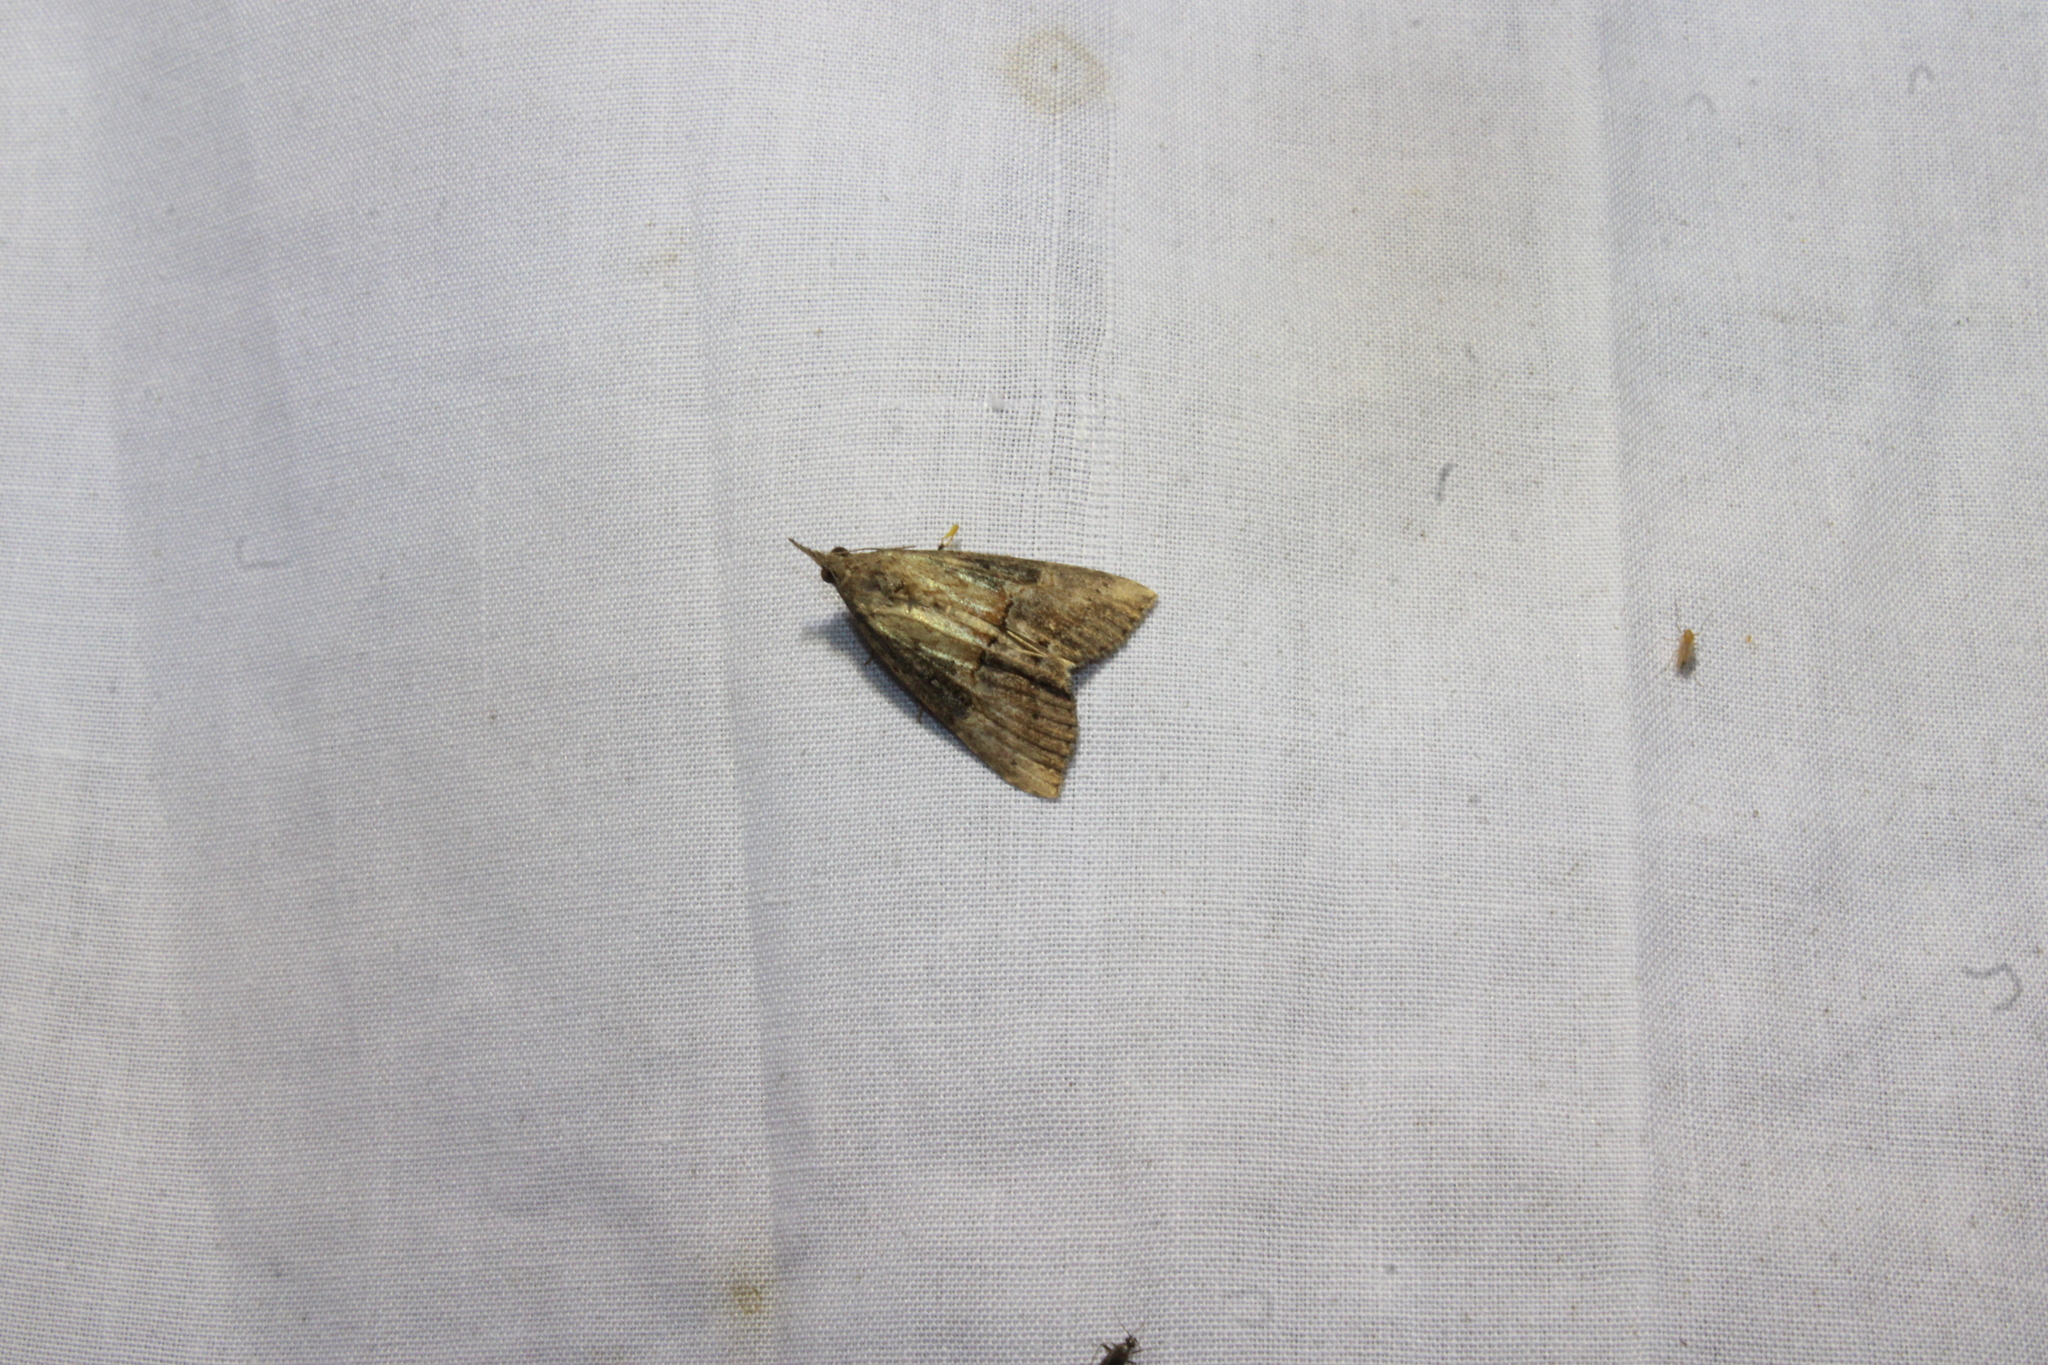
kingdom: Animalia
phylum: Arthropoda
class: Insecta
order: Lepidoptera
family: Erebidae
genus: Hypena
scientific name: Hypena scabra
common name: Green cloverworm
